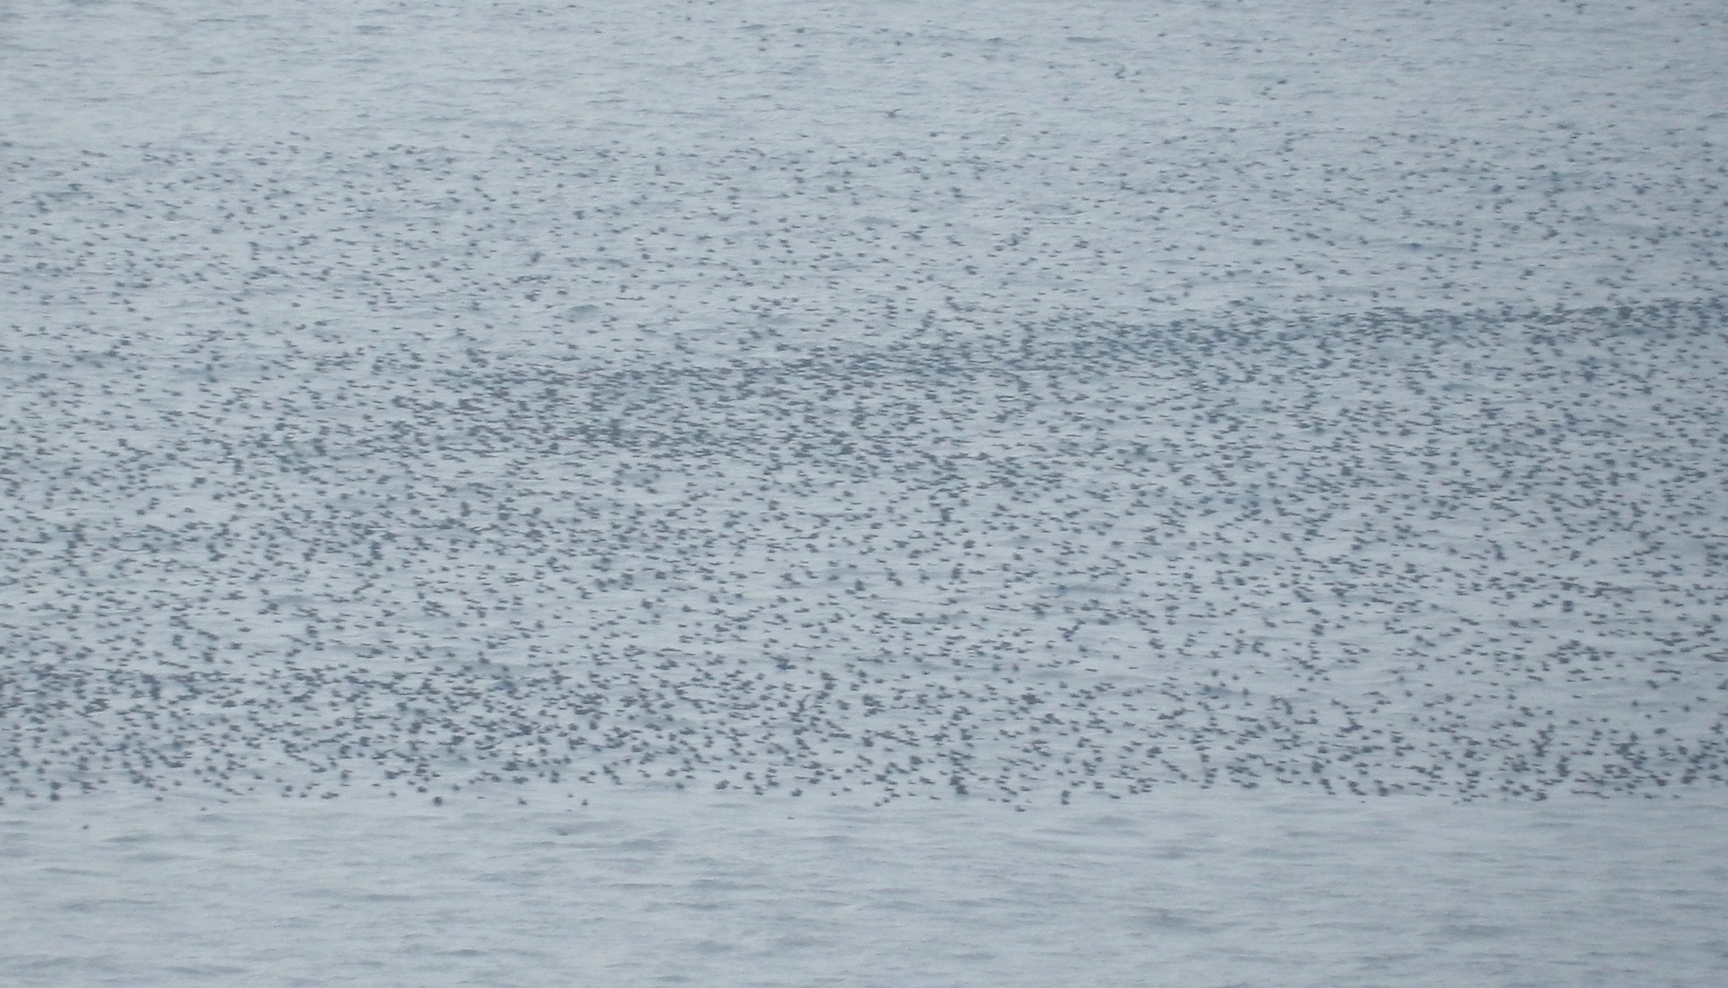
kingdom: Animalia
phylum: Chordata
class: Aves
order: Procellariiformes
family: Procellariidae
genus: Puffinus
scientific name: Puffinus griseus
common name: Sooty shearwater
